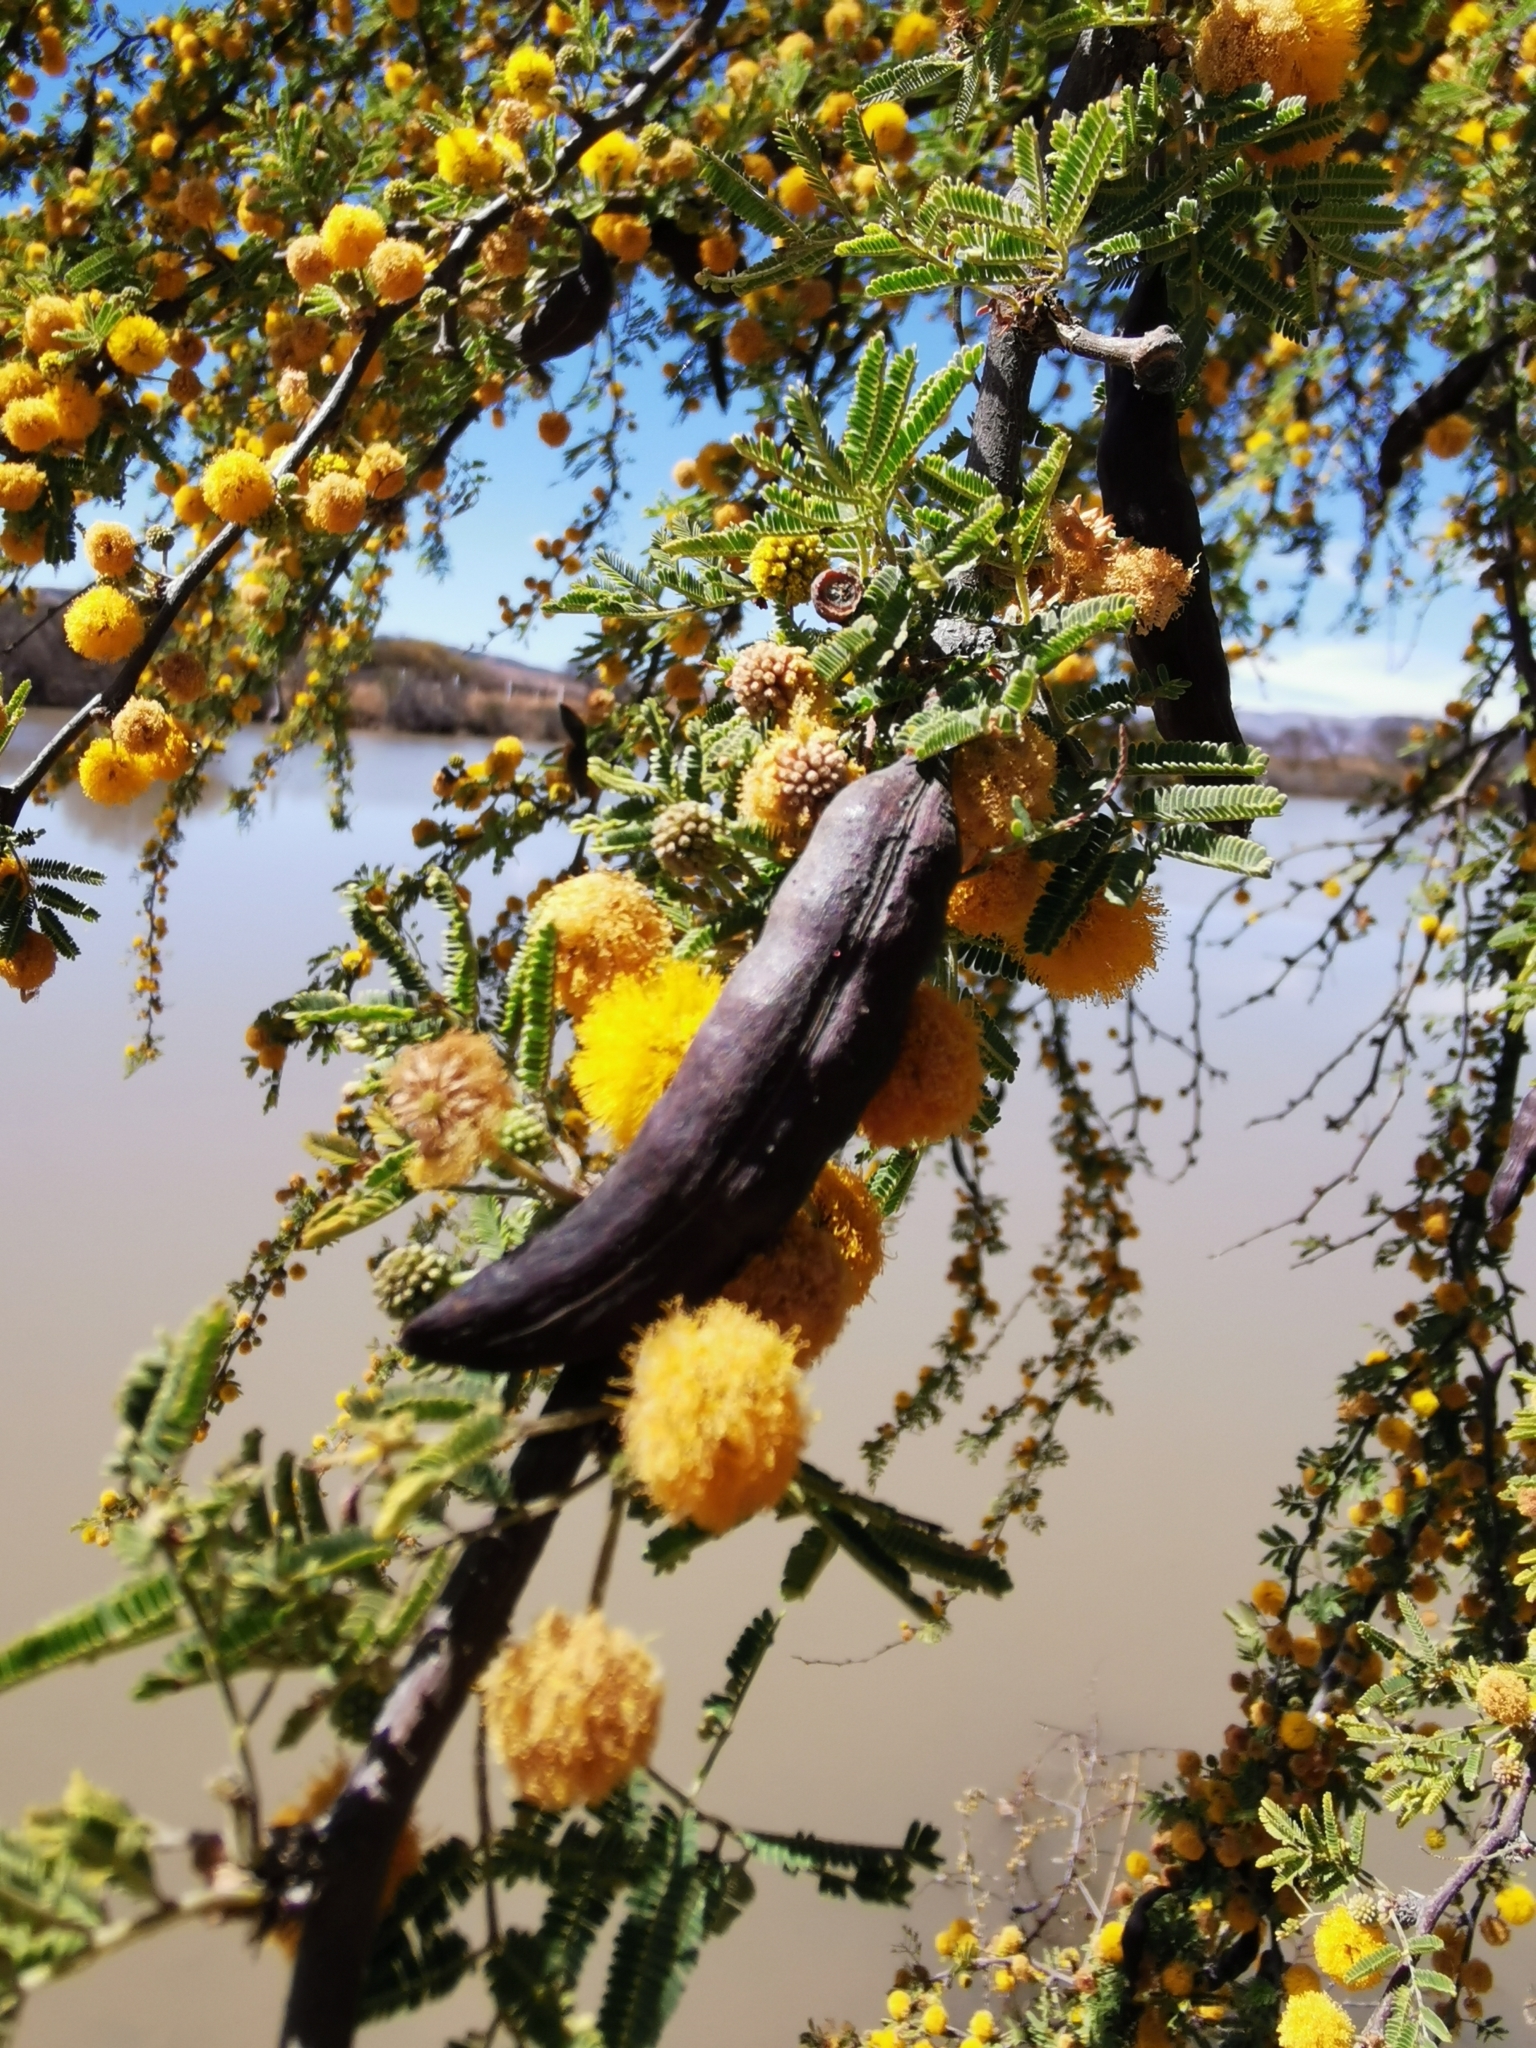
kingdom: Plantae
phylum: Tracheophyta
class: Magnoliopsida
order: Fabales
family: Fabaceae
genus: Vachellia
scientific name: Vachellia farnesiana
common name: Sweet acacia
